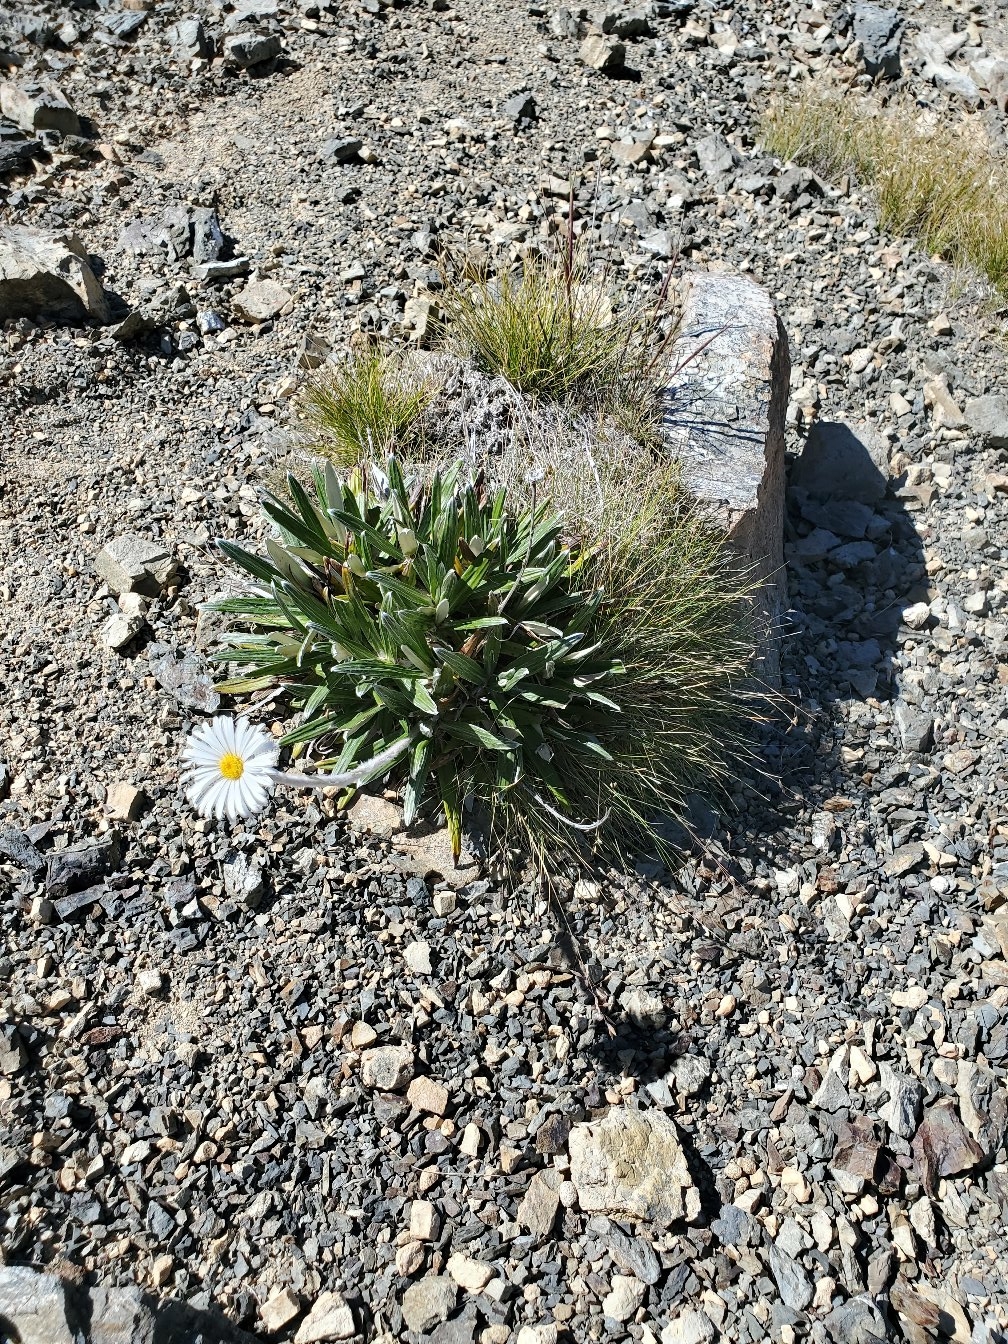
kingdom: Plantae
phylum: Tracheophyta
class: Magnoliopsida
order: Asterales
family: Asteraceae
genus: Celmisia
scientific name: Celmisia spectabilis
